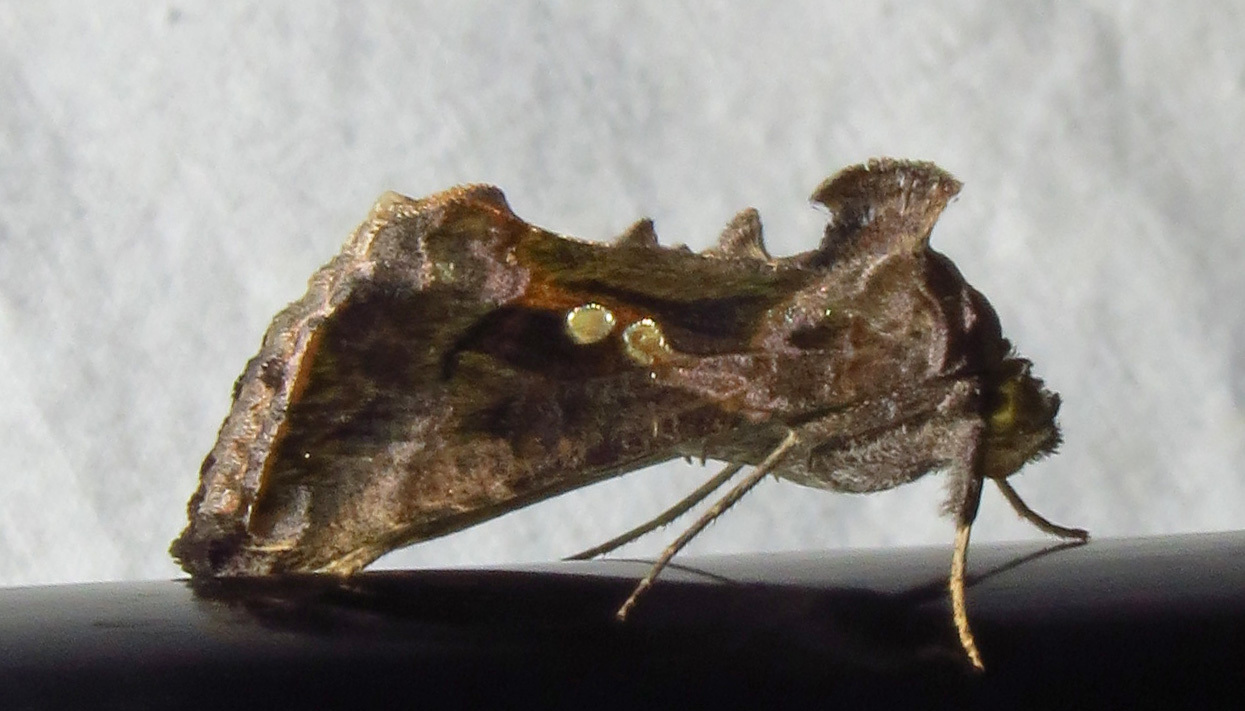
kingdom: Animalia
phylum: Arthropoda
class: Insecta
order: Lepidoptera
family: Noctuidae
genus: Chrysodeixis
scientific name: Chrysodeixis includens
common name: Cutworm moth
